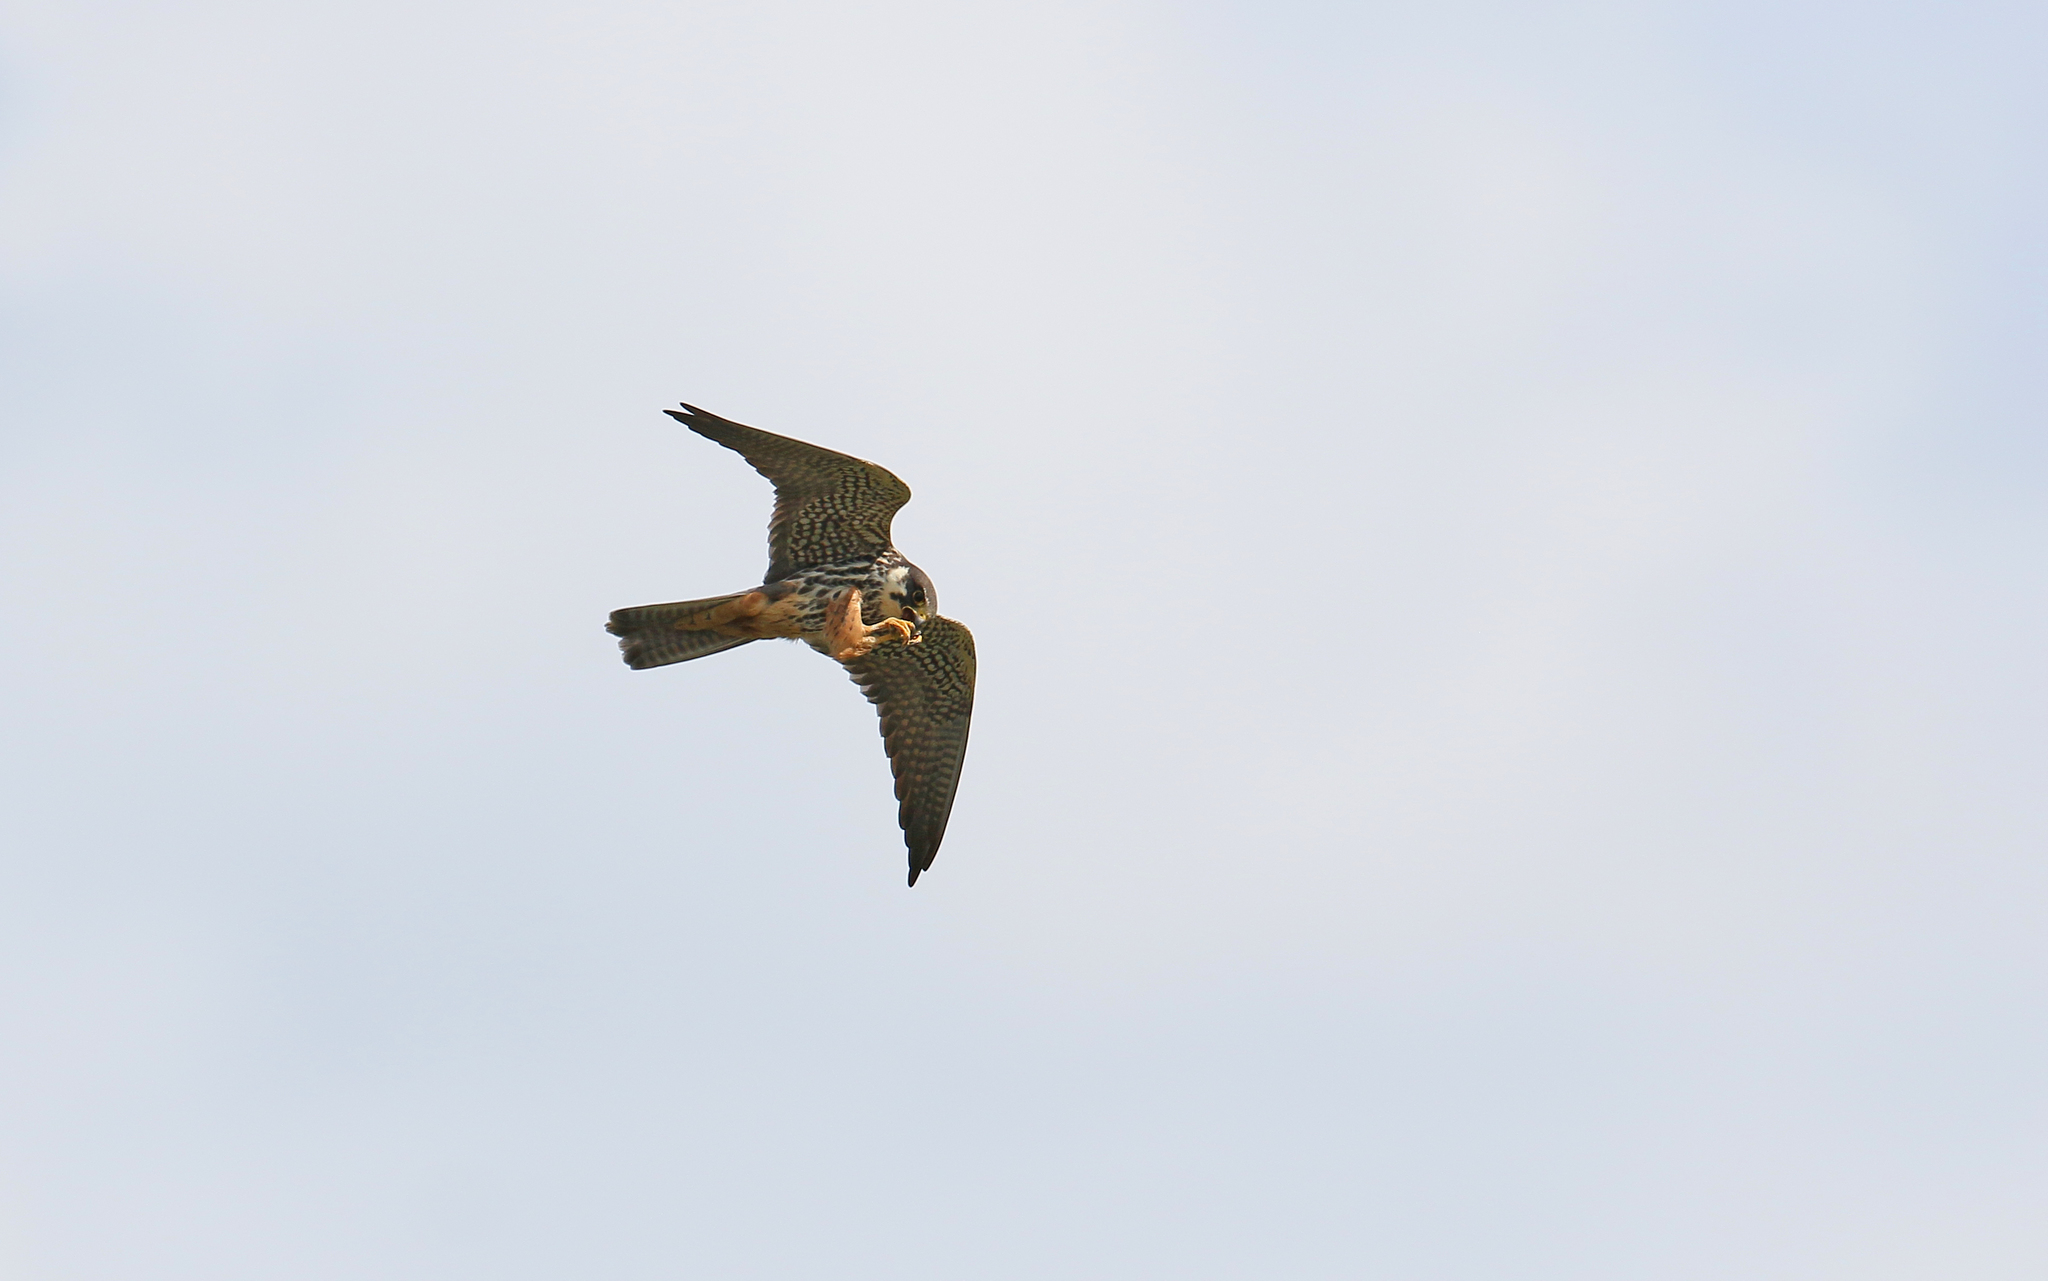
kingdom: Animalia
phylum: Chordata
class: Aves
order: Falconiformes
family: Falconidae
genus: Falco
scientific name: Falco subbuteo
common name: Eurasian hobby
